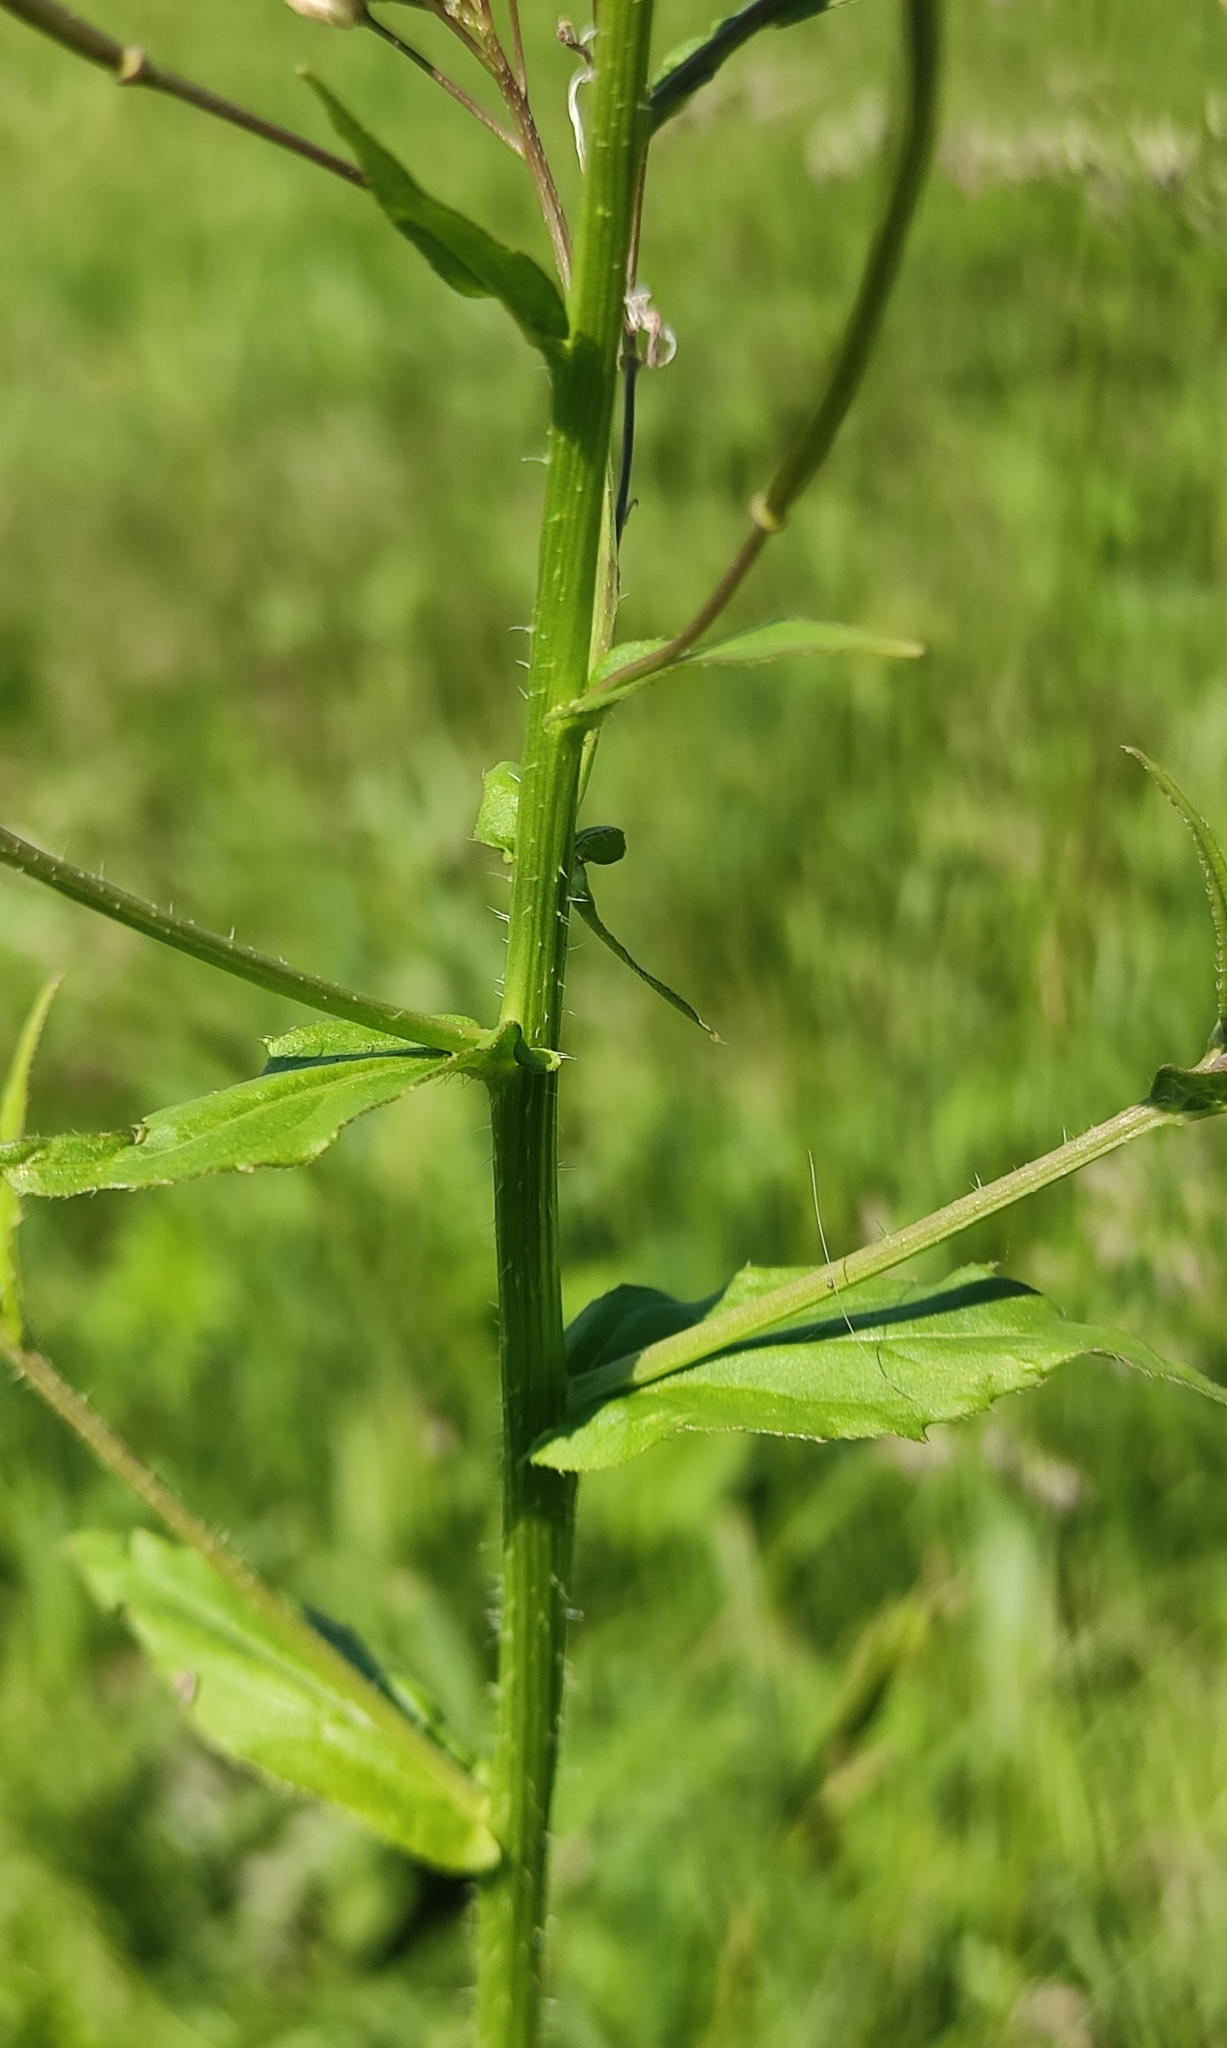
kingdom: Plantae
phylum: Tracheophyta
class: Magnoliopsida
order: Brassicales
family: Brassicaceae
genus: Catolobus
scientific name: Catolobus pendulus
